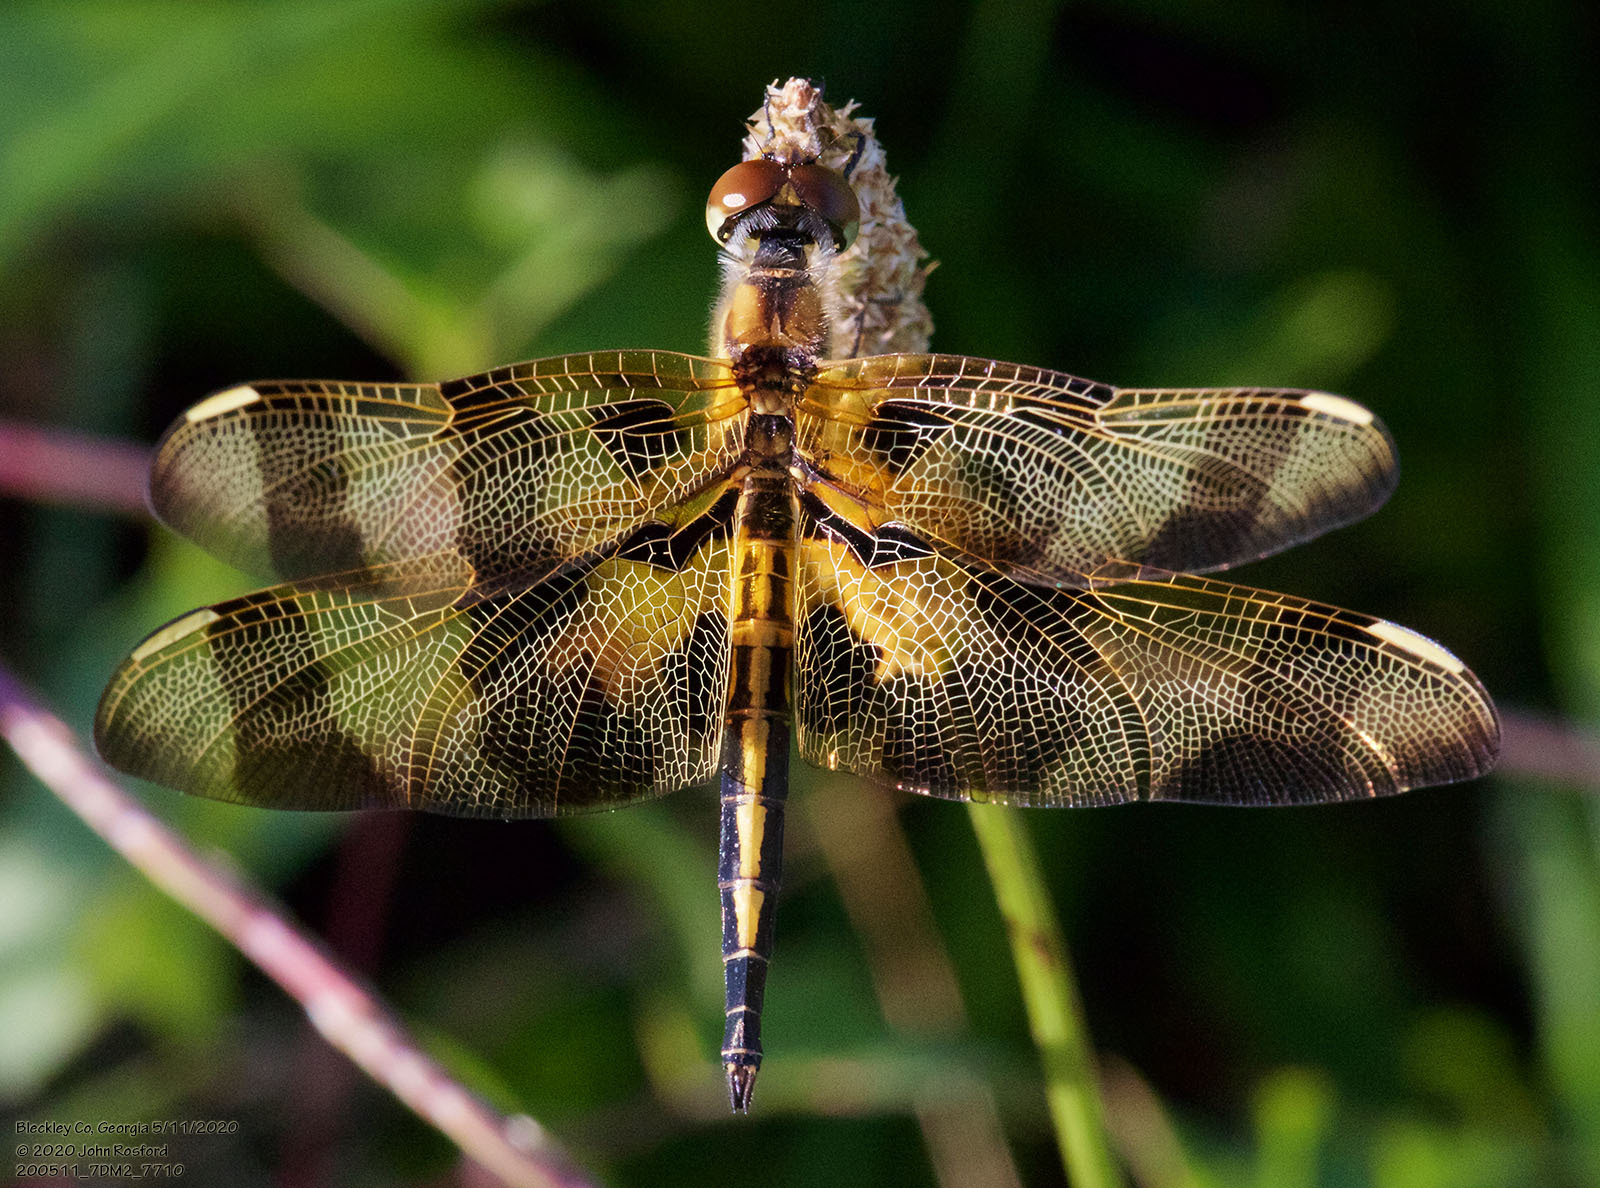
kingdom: Animalia
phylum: Arthropoda
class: Insecta
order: Odonata
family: Libellulidae
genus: Celithemis
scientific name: Celithemis eponina
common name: Halloween pennant
